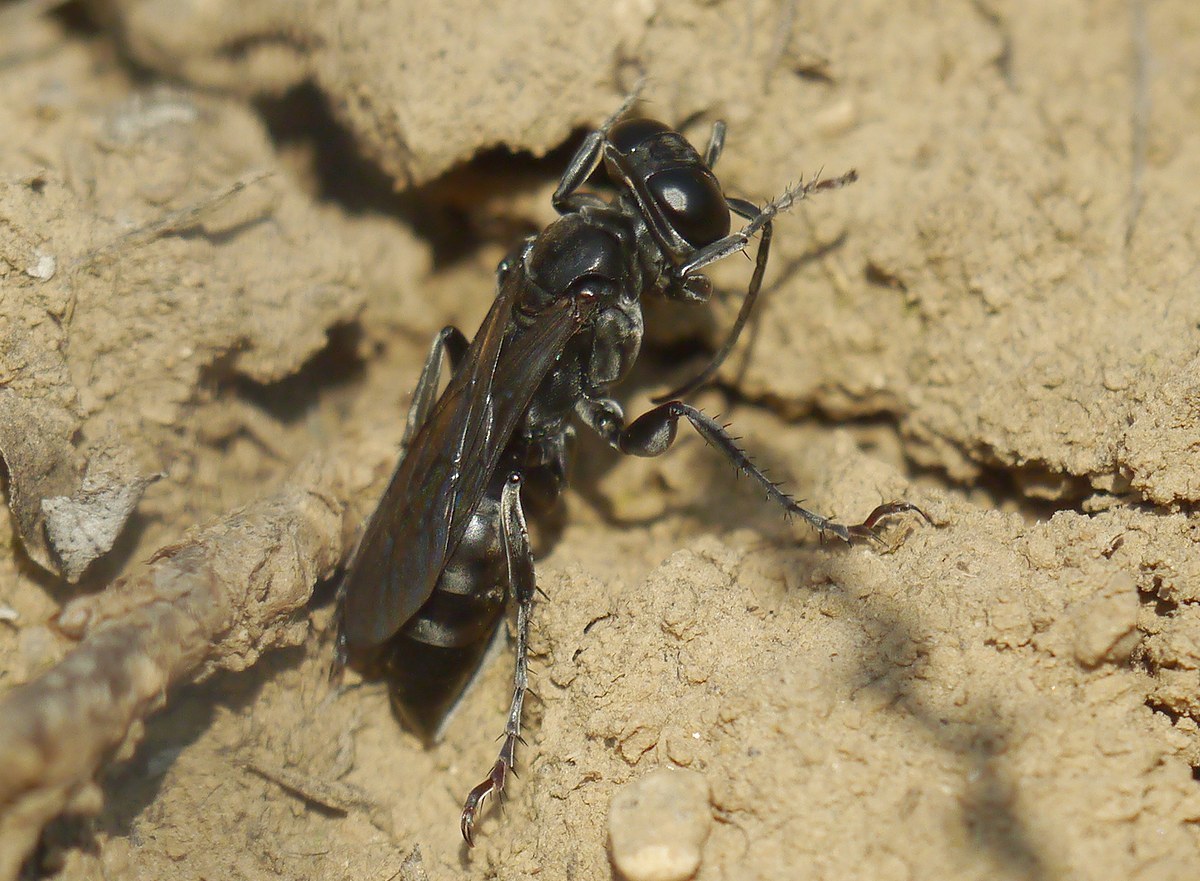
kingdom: Animalia
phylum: Arthropoda
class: Insecta
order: Hymenoptera
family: Crabronidae
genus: Liris
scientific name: Liris niger
